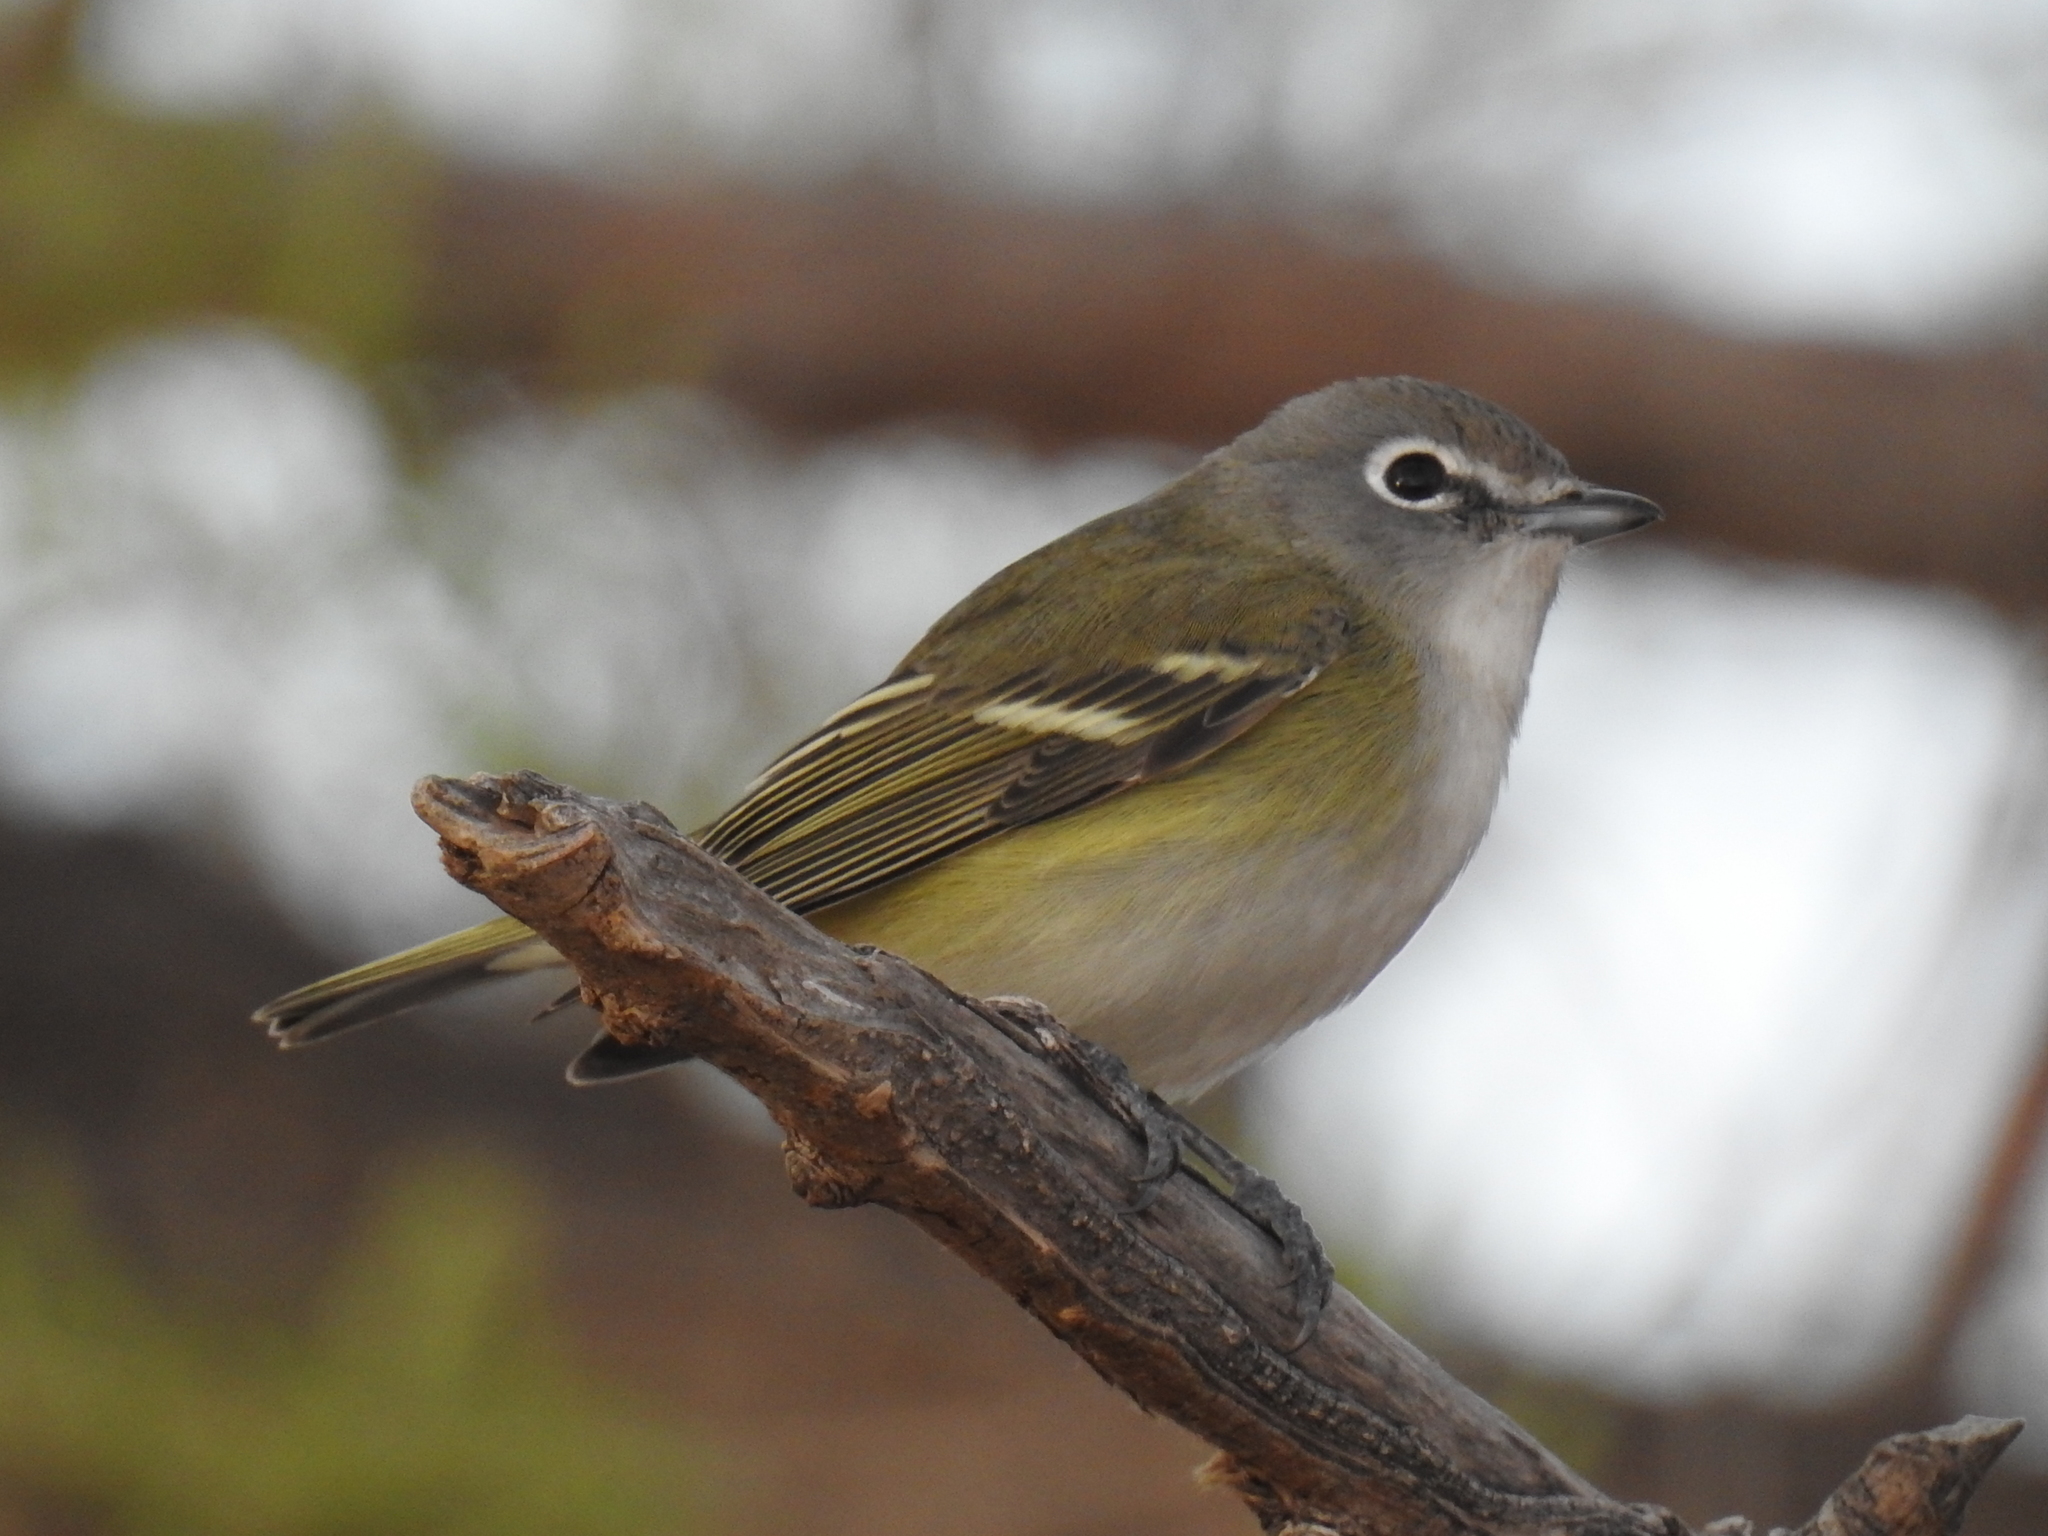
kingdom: Animalia
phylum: Chordata
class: Aves
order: Passeriformes
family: Vireonidae
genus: Vireo
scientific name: Vireo cassinii
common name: Cassin's vireo
